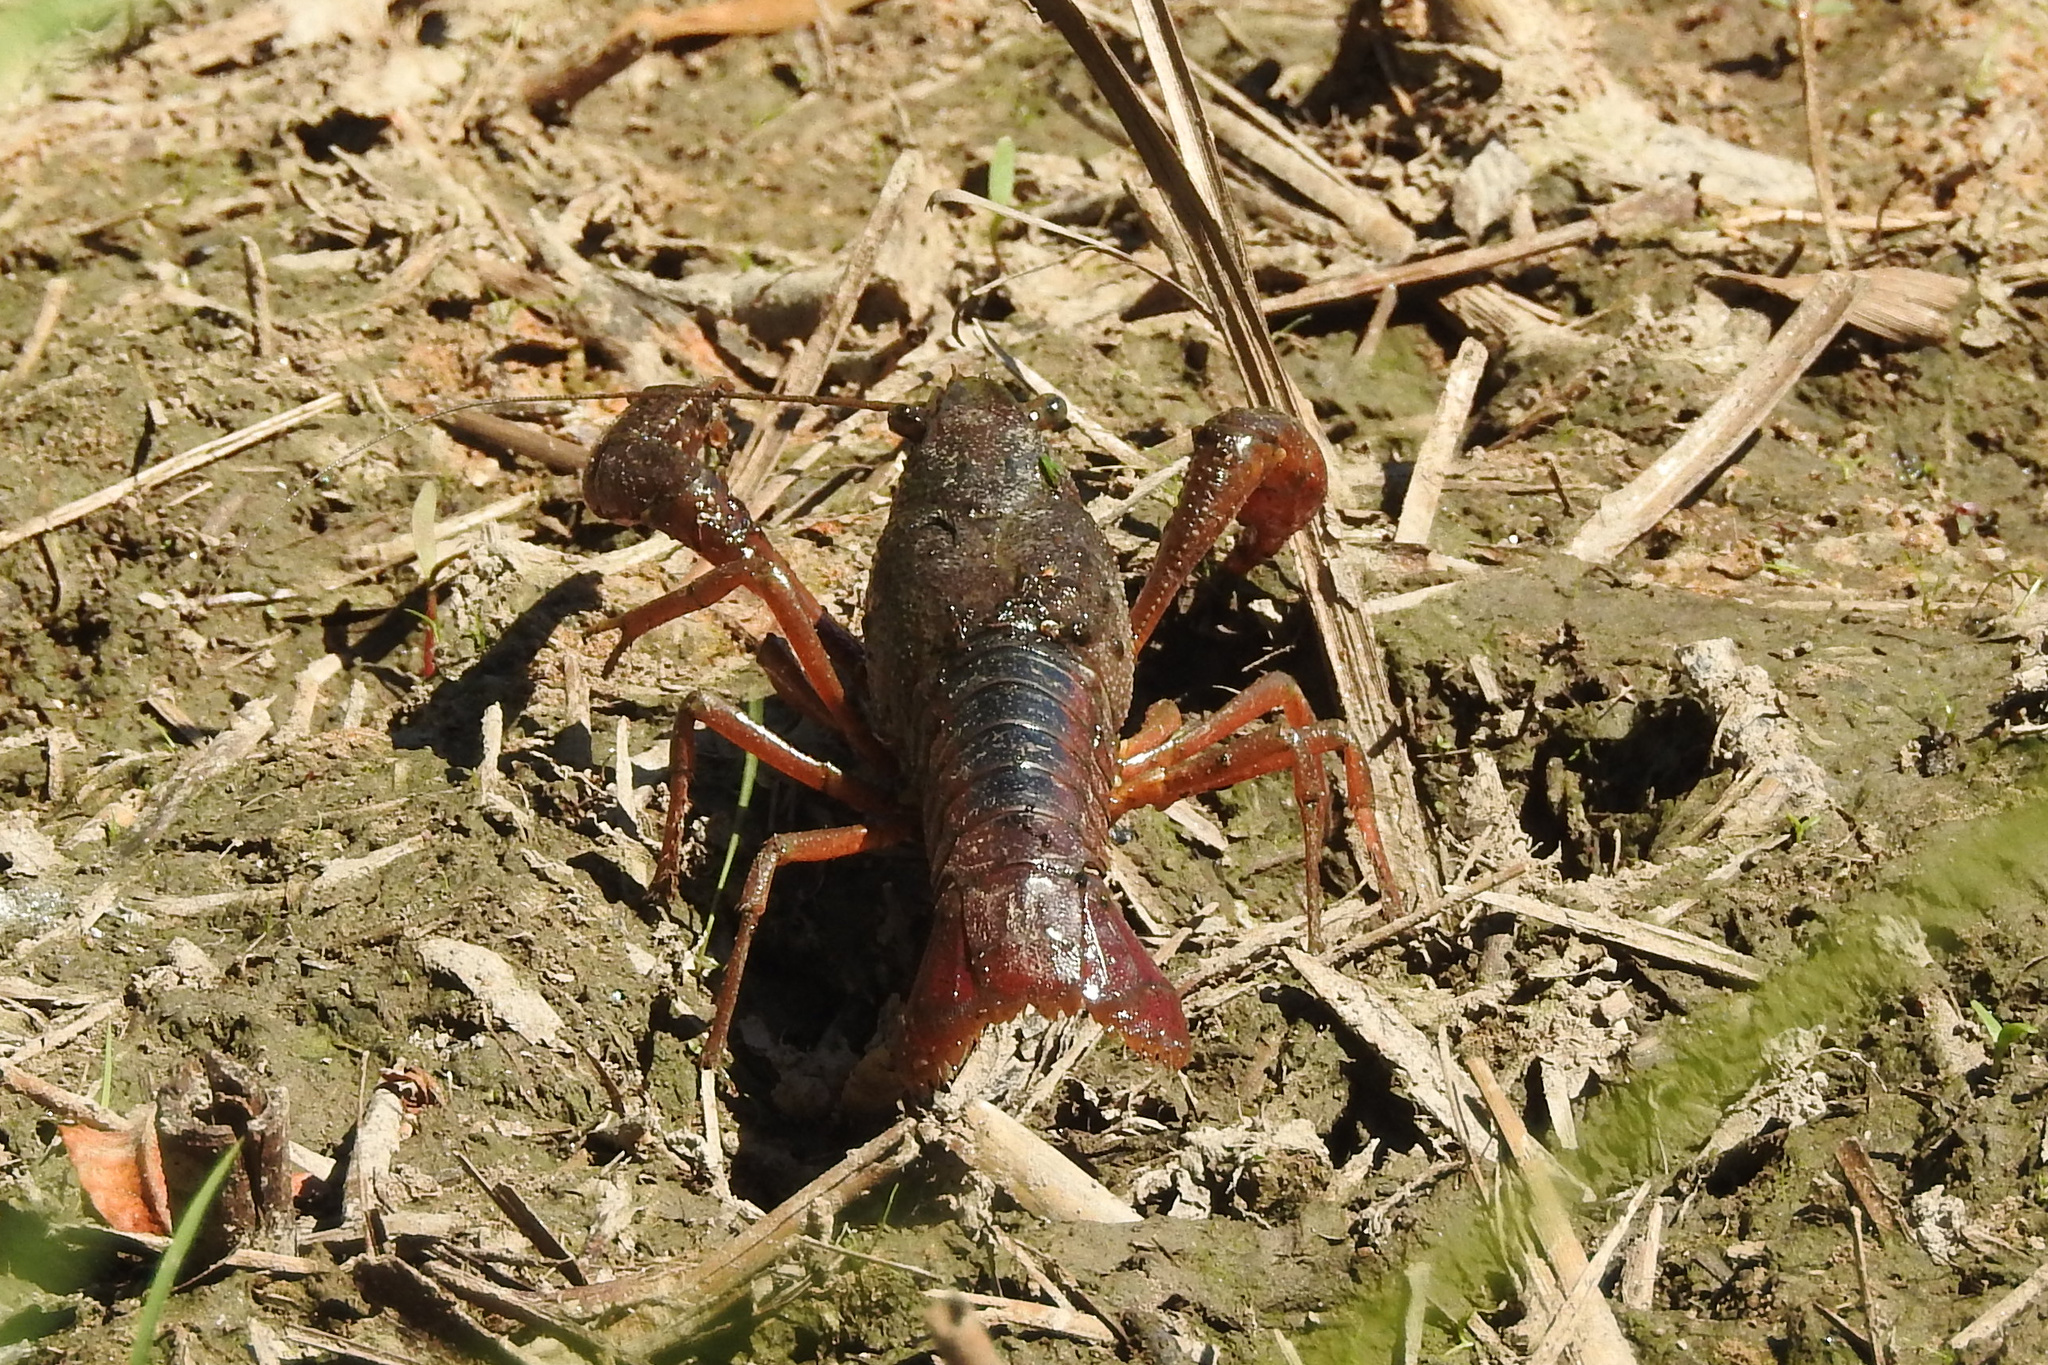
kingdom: Animalia
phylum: Arthropoda
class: Malacostraca
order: Decapoda
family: Cambaridae
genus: Procambarus
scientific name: Procambarus acutus
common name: White river crayfish
